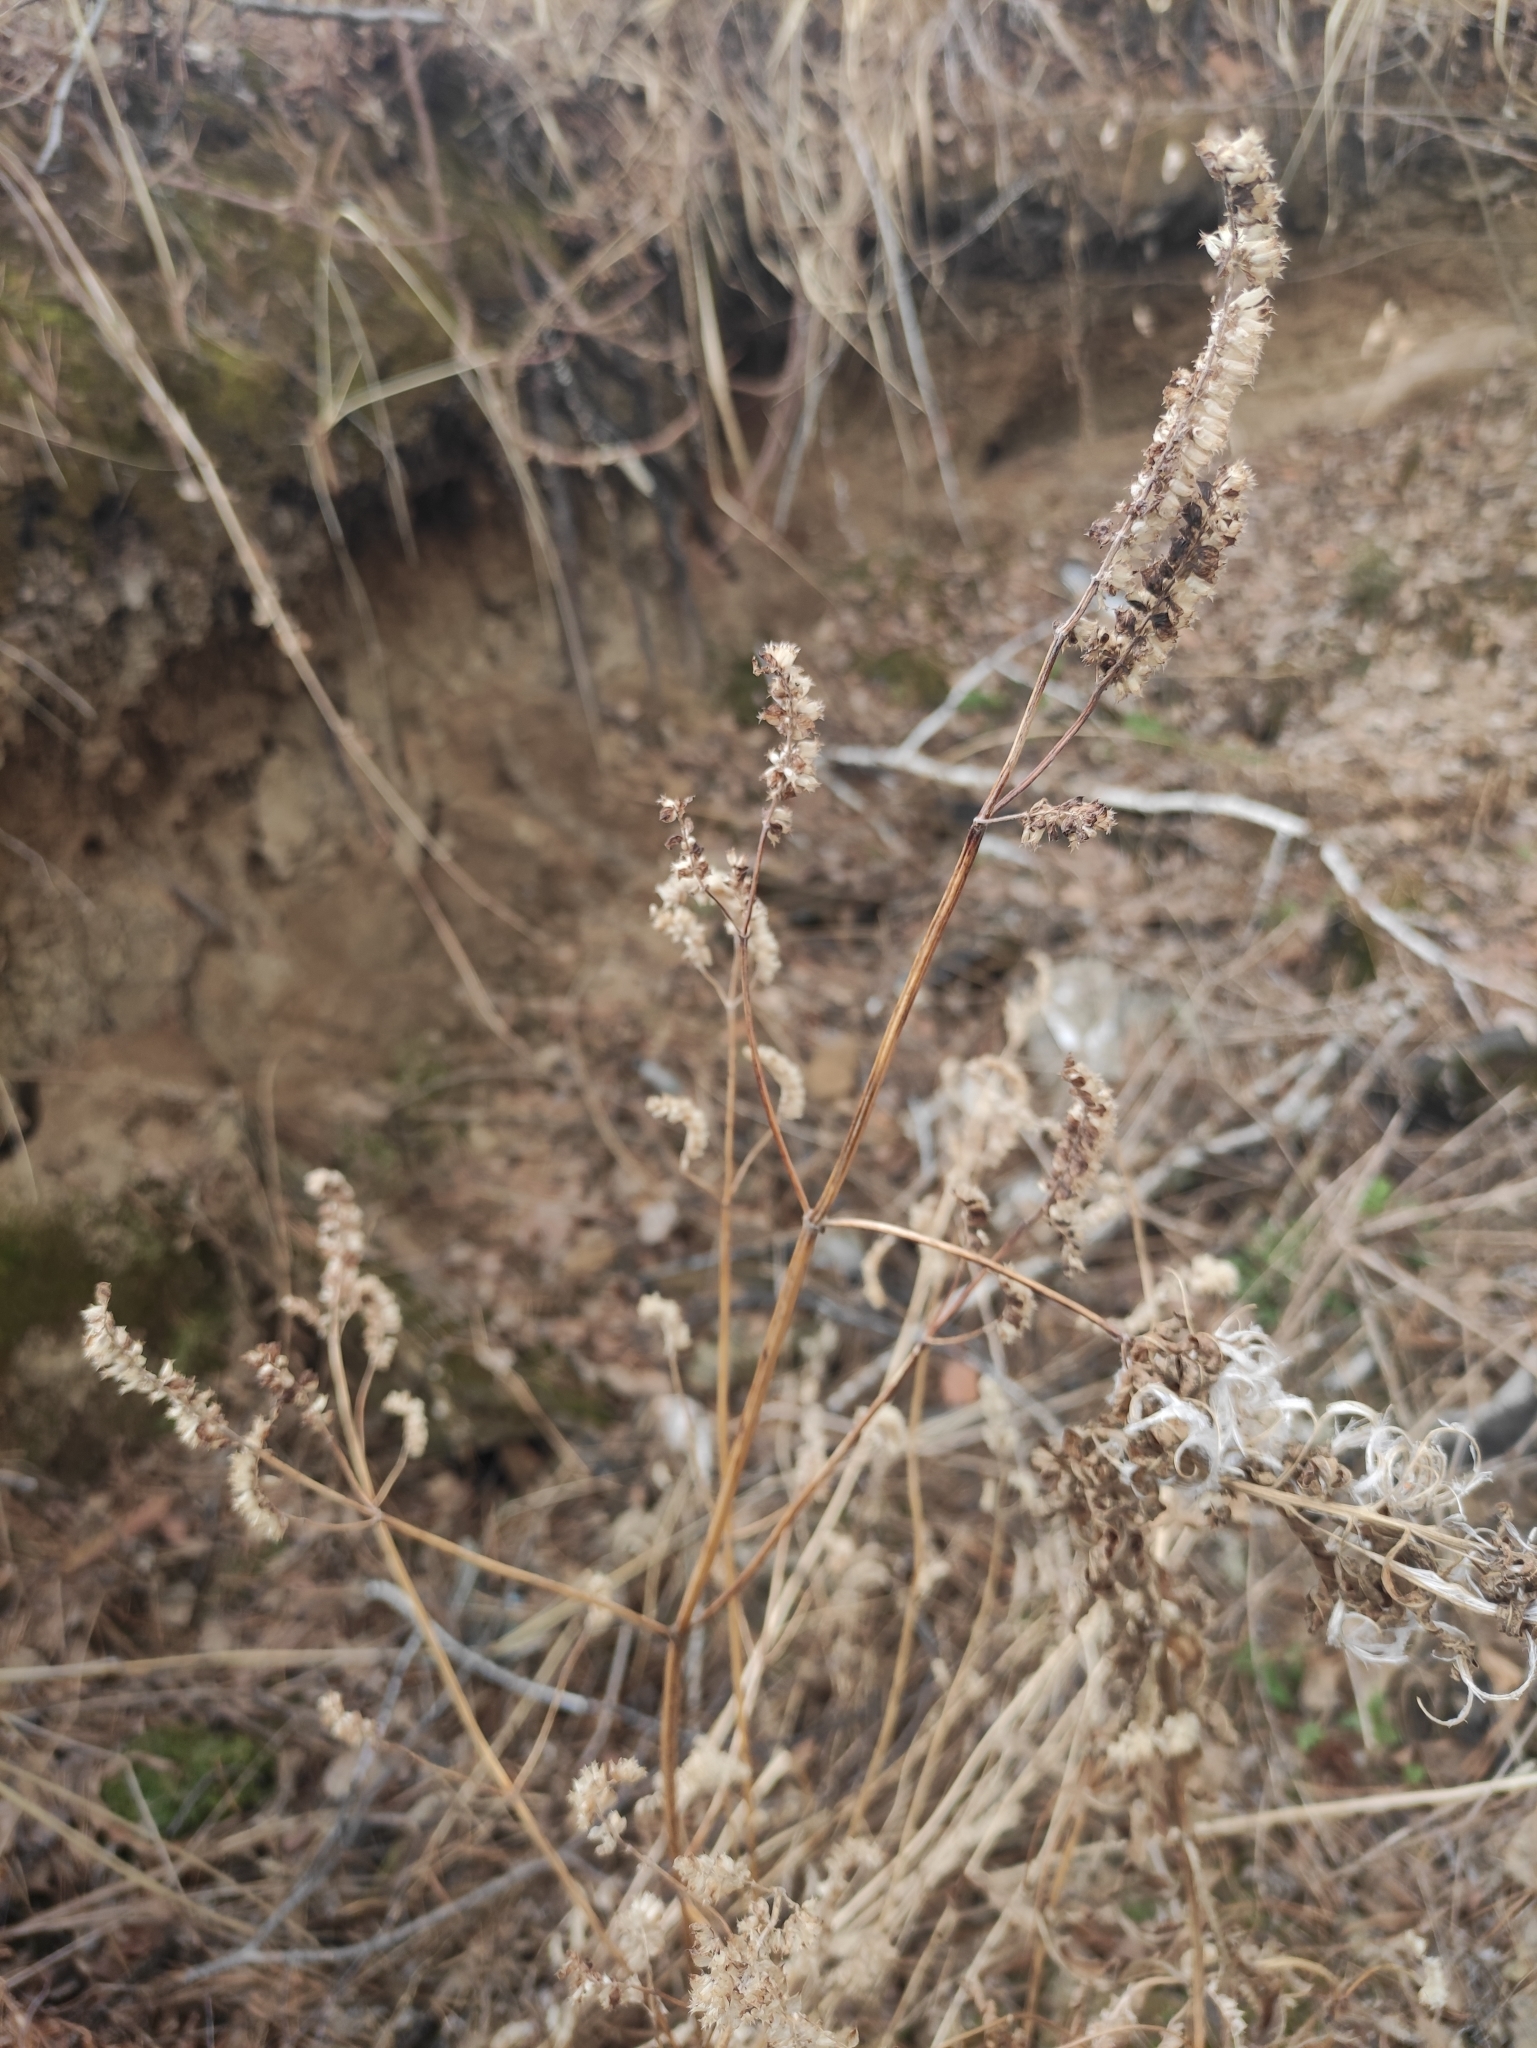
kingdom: Plantae
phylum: Tracheophyta
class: Magnoliopsida
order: Lamiales
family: Lamiaceae
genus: Elsholtzia
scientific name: Elsholtzia ciliata
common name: Ciliate elsholtzia
